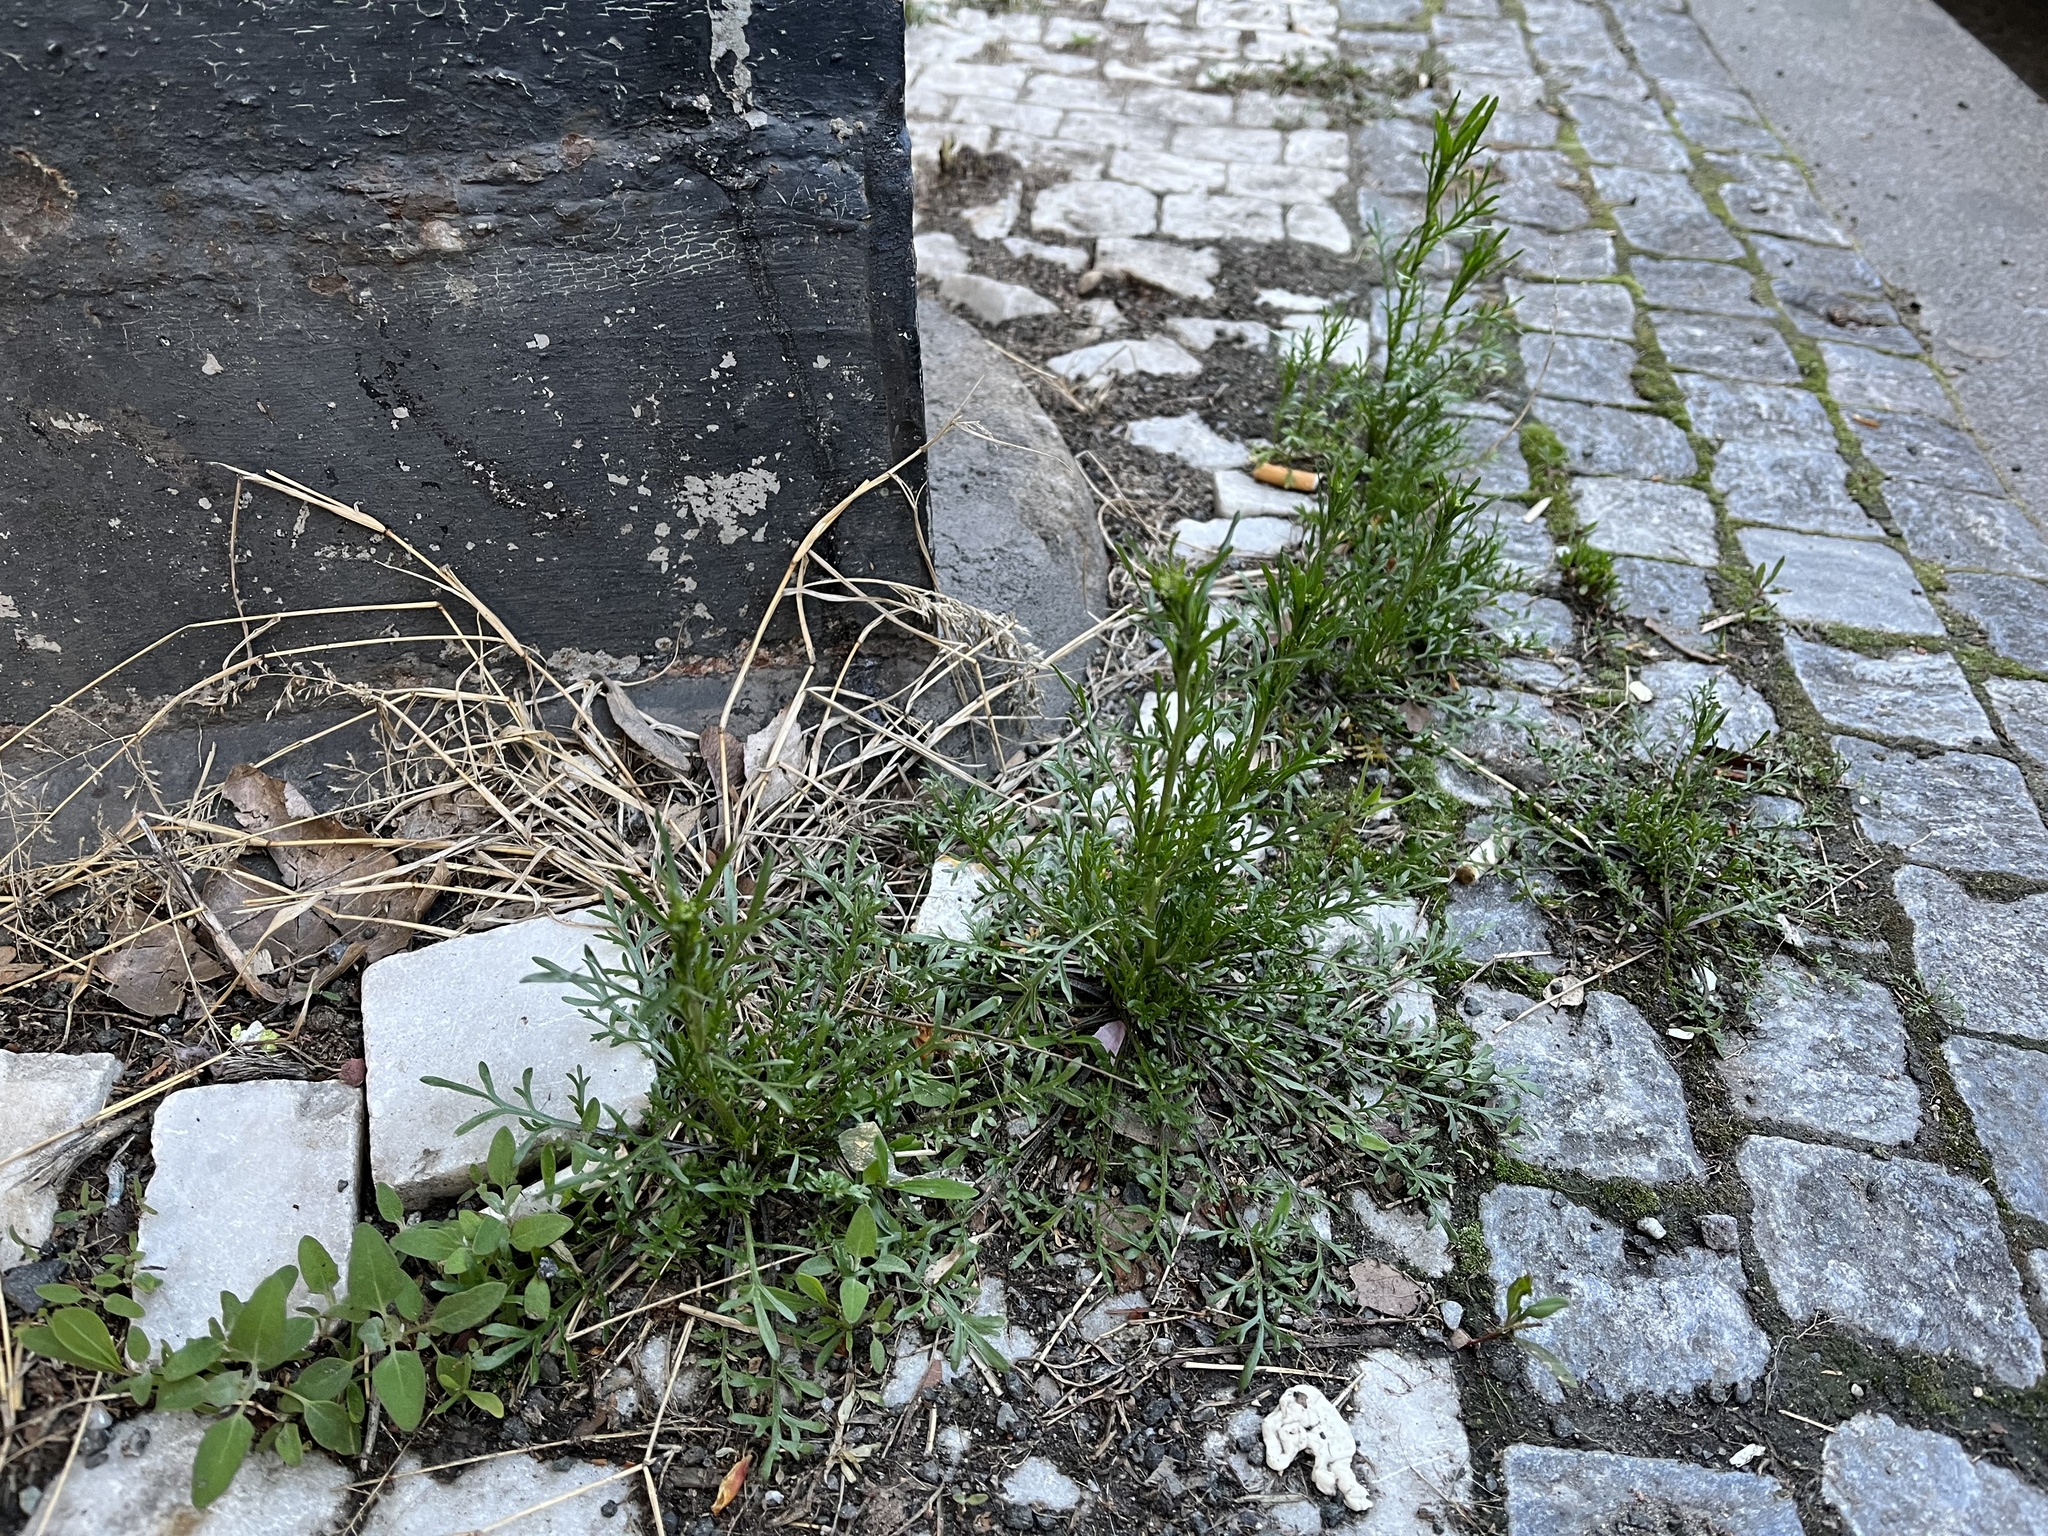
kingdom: Plantae
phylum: Tracheophyta
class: Magnoliopsida
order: Brassicales
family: Brassicaceae
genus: Lepidium
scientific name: Lepidium ruderale
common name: Narrow-leaved pepperwort
